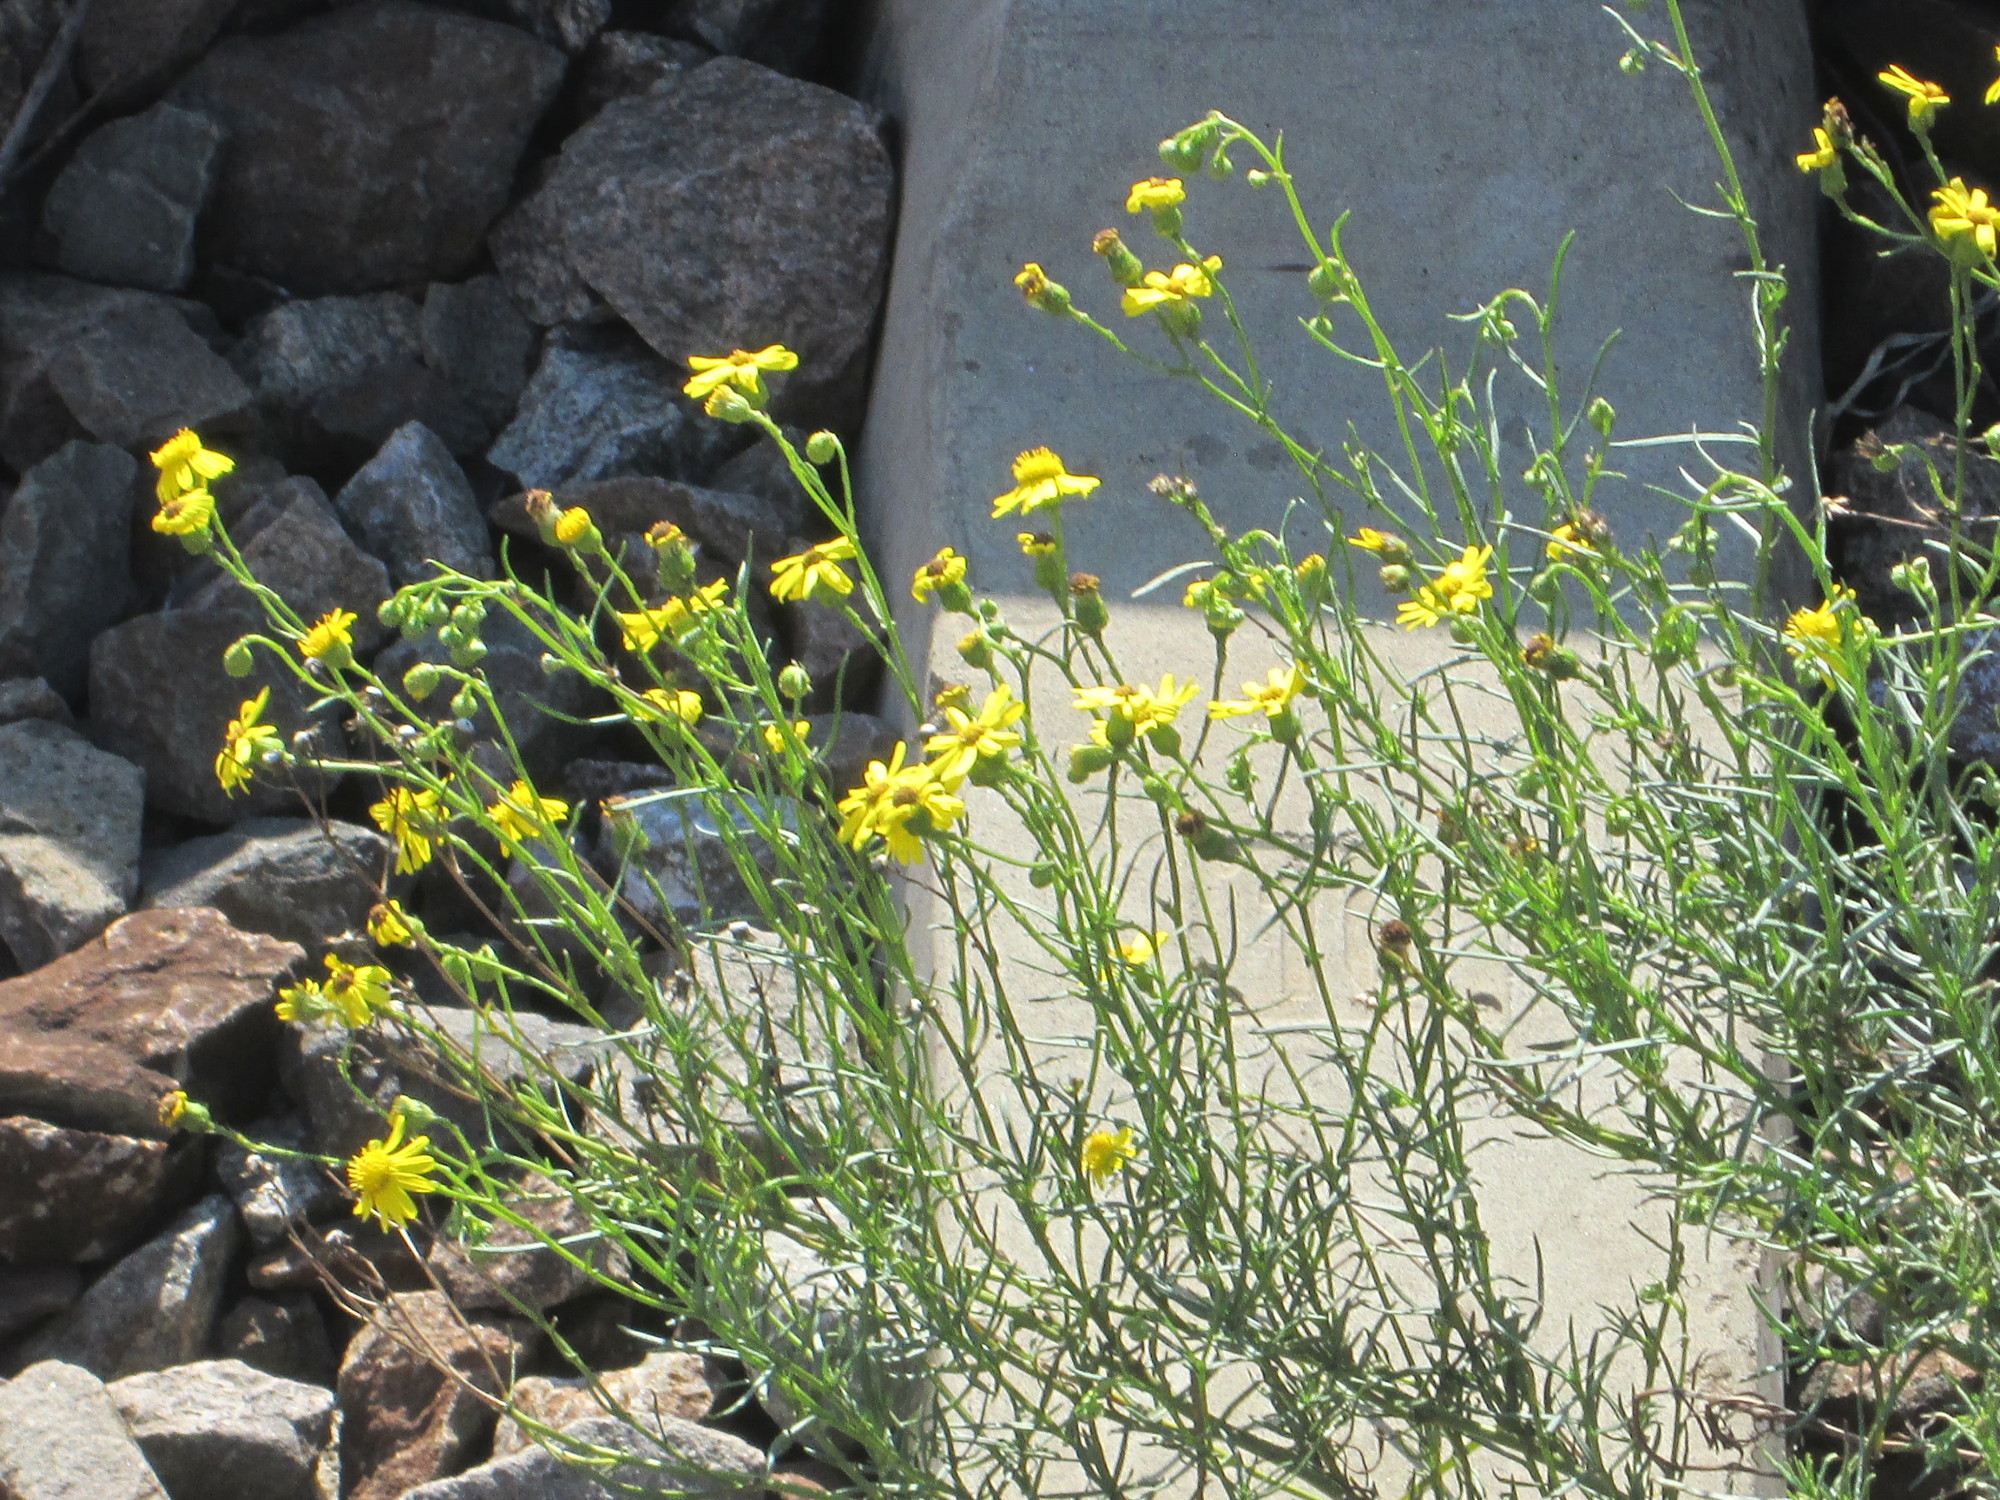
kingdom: Plantae
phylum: Tracheophyta
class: Magnoliopsida
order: Asterales
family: Asteraceae
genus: Senecio
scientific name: Senecio inaequidens
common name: Narrow-leaved ragwort
